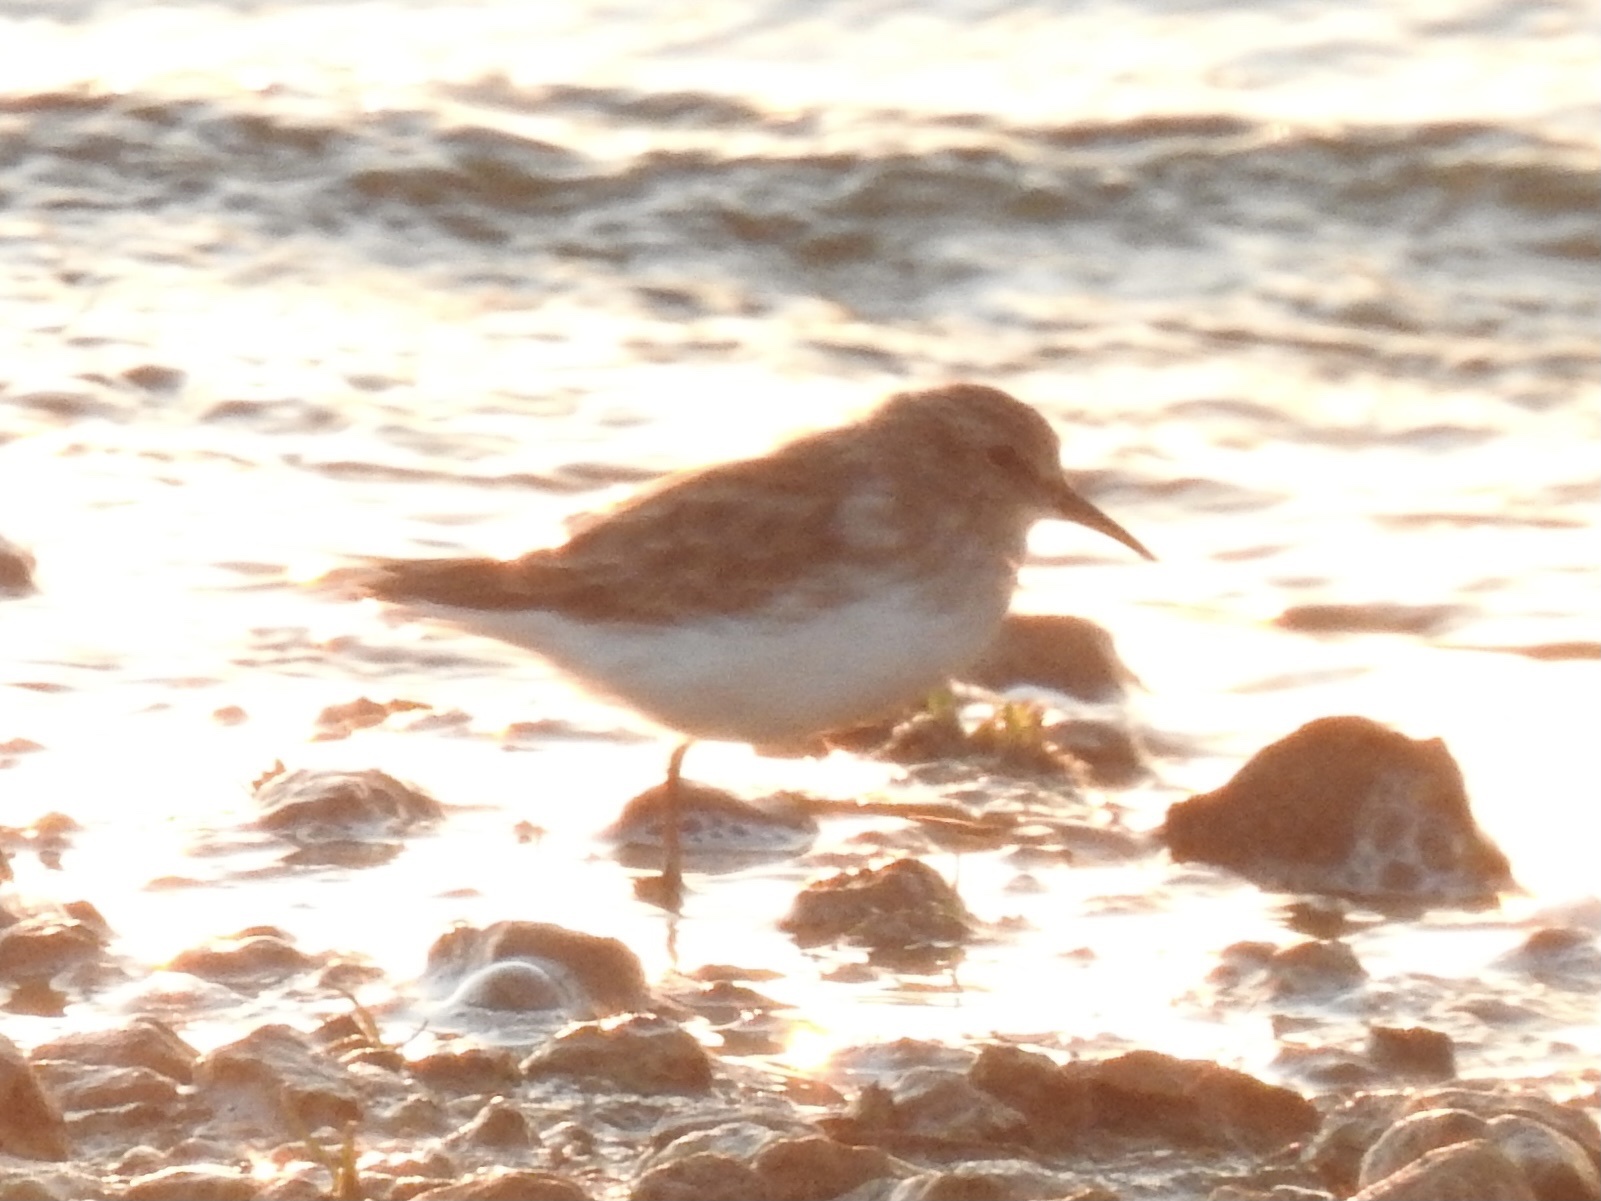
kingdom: Animalia
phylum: Chordata
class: Aves
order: Charadriiformes
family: Scolopacidae
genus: Calidris
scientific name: Calidris minutilla
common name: Least sandpiper
